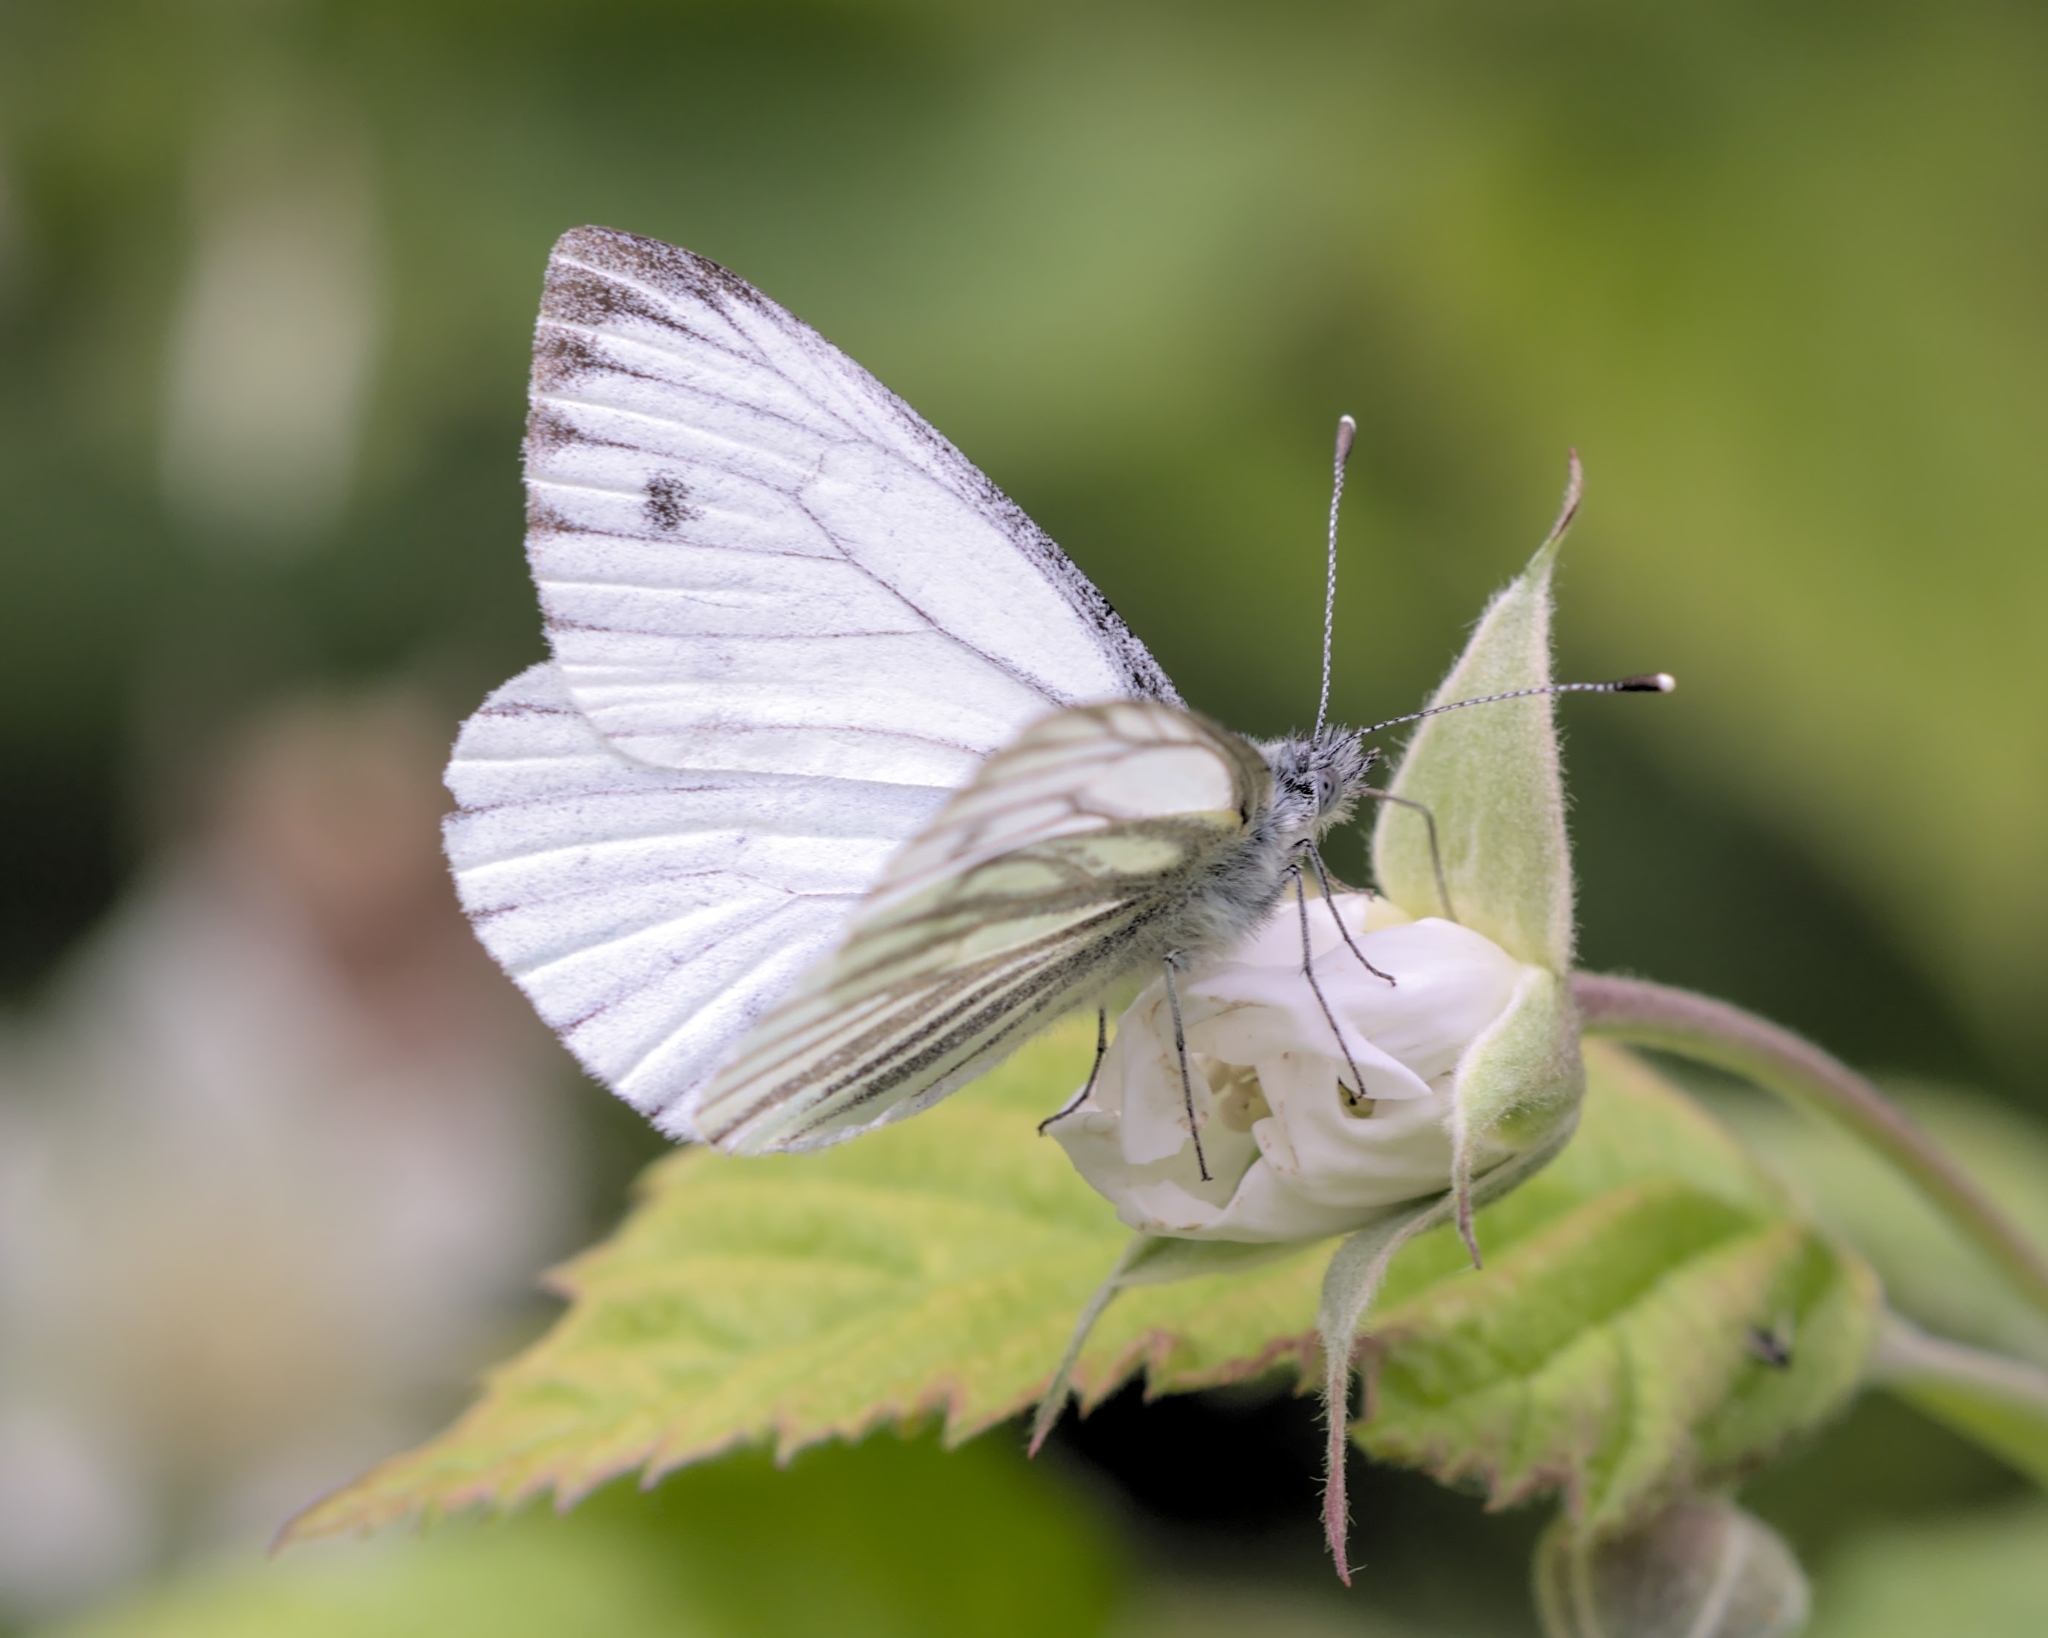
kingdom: Animalia
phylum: Arthropoda
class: Insecta
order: Lepidoptera
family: Pieridae
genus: Pieris
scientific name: Pieris napi
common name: Green-veined white
